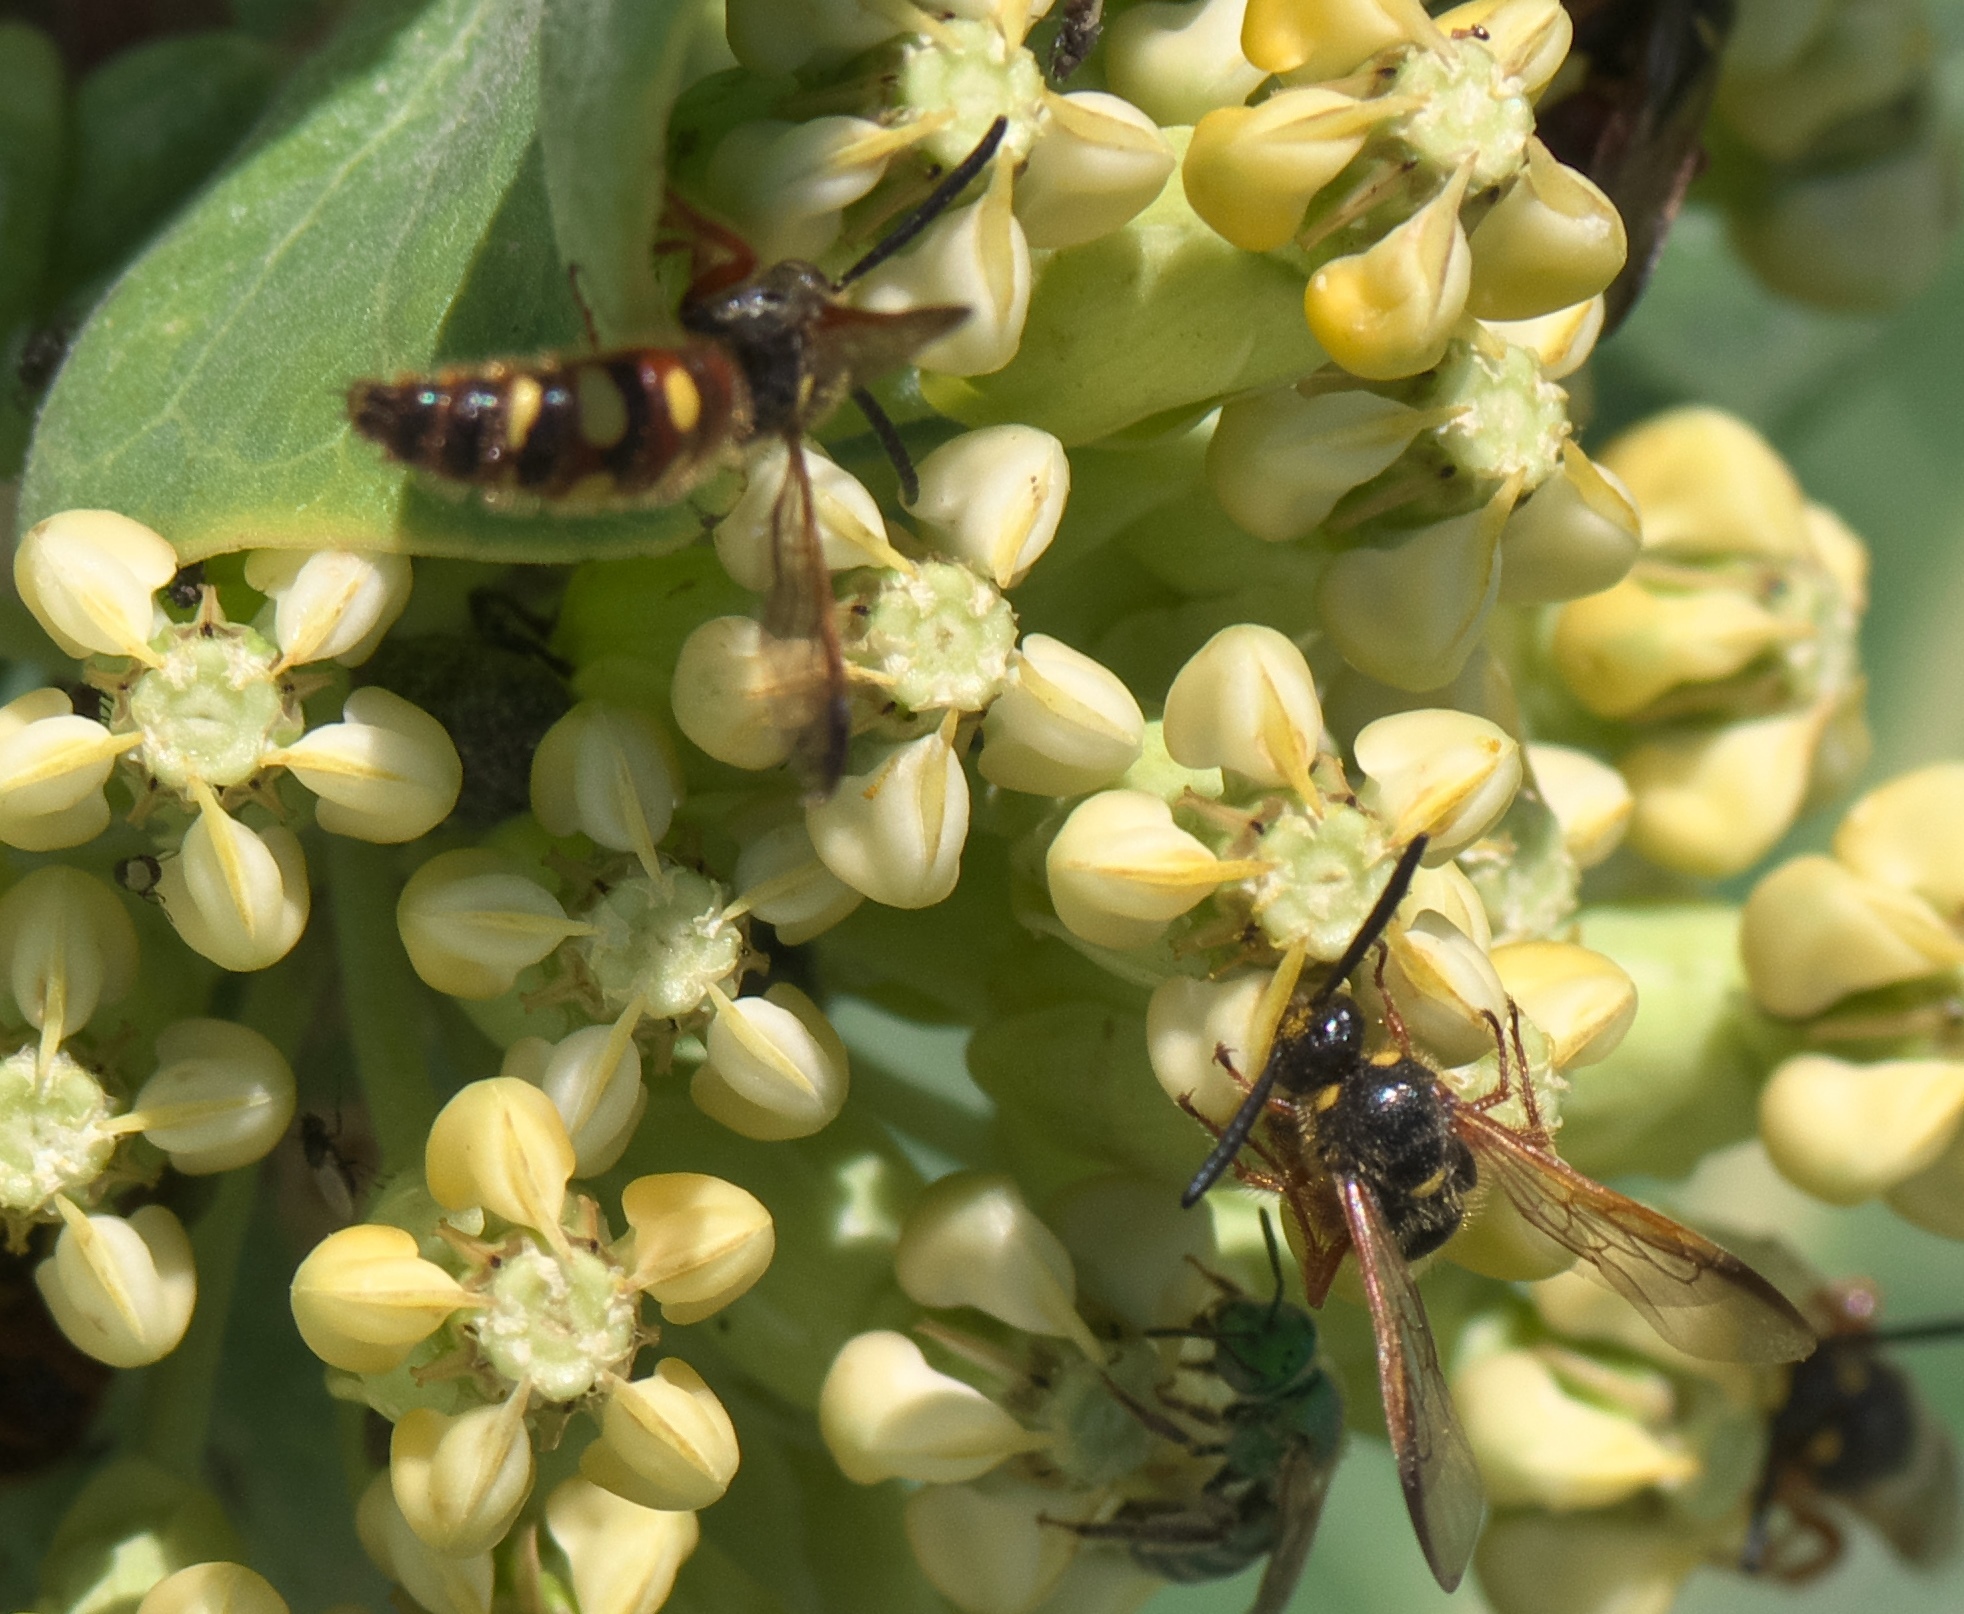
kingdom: Animalia
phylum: Arthropoda
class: Insecta
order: Hymenoptera
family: Scoliidae
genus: Scolia
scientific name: Scolia nobilitata
